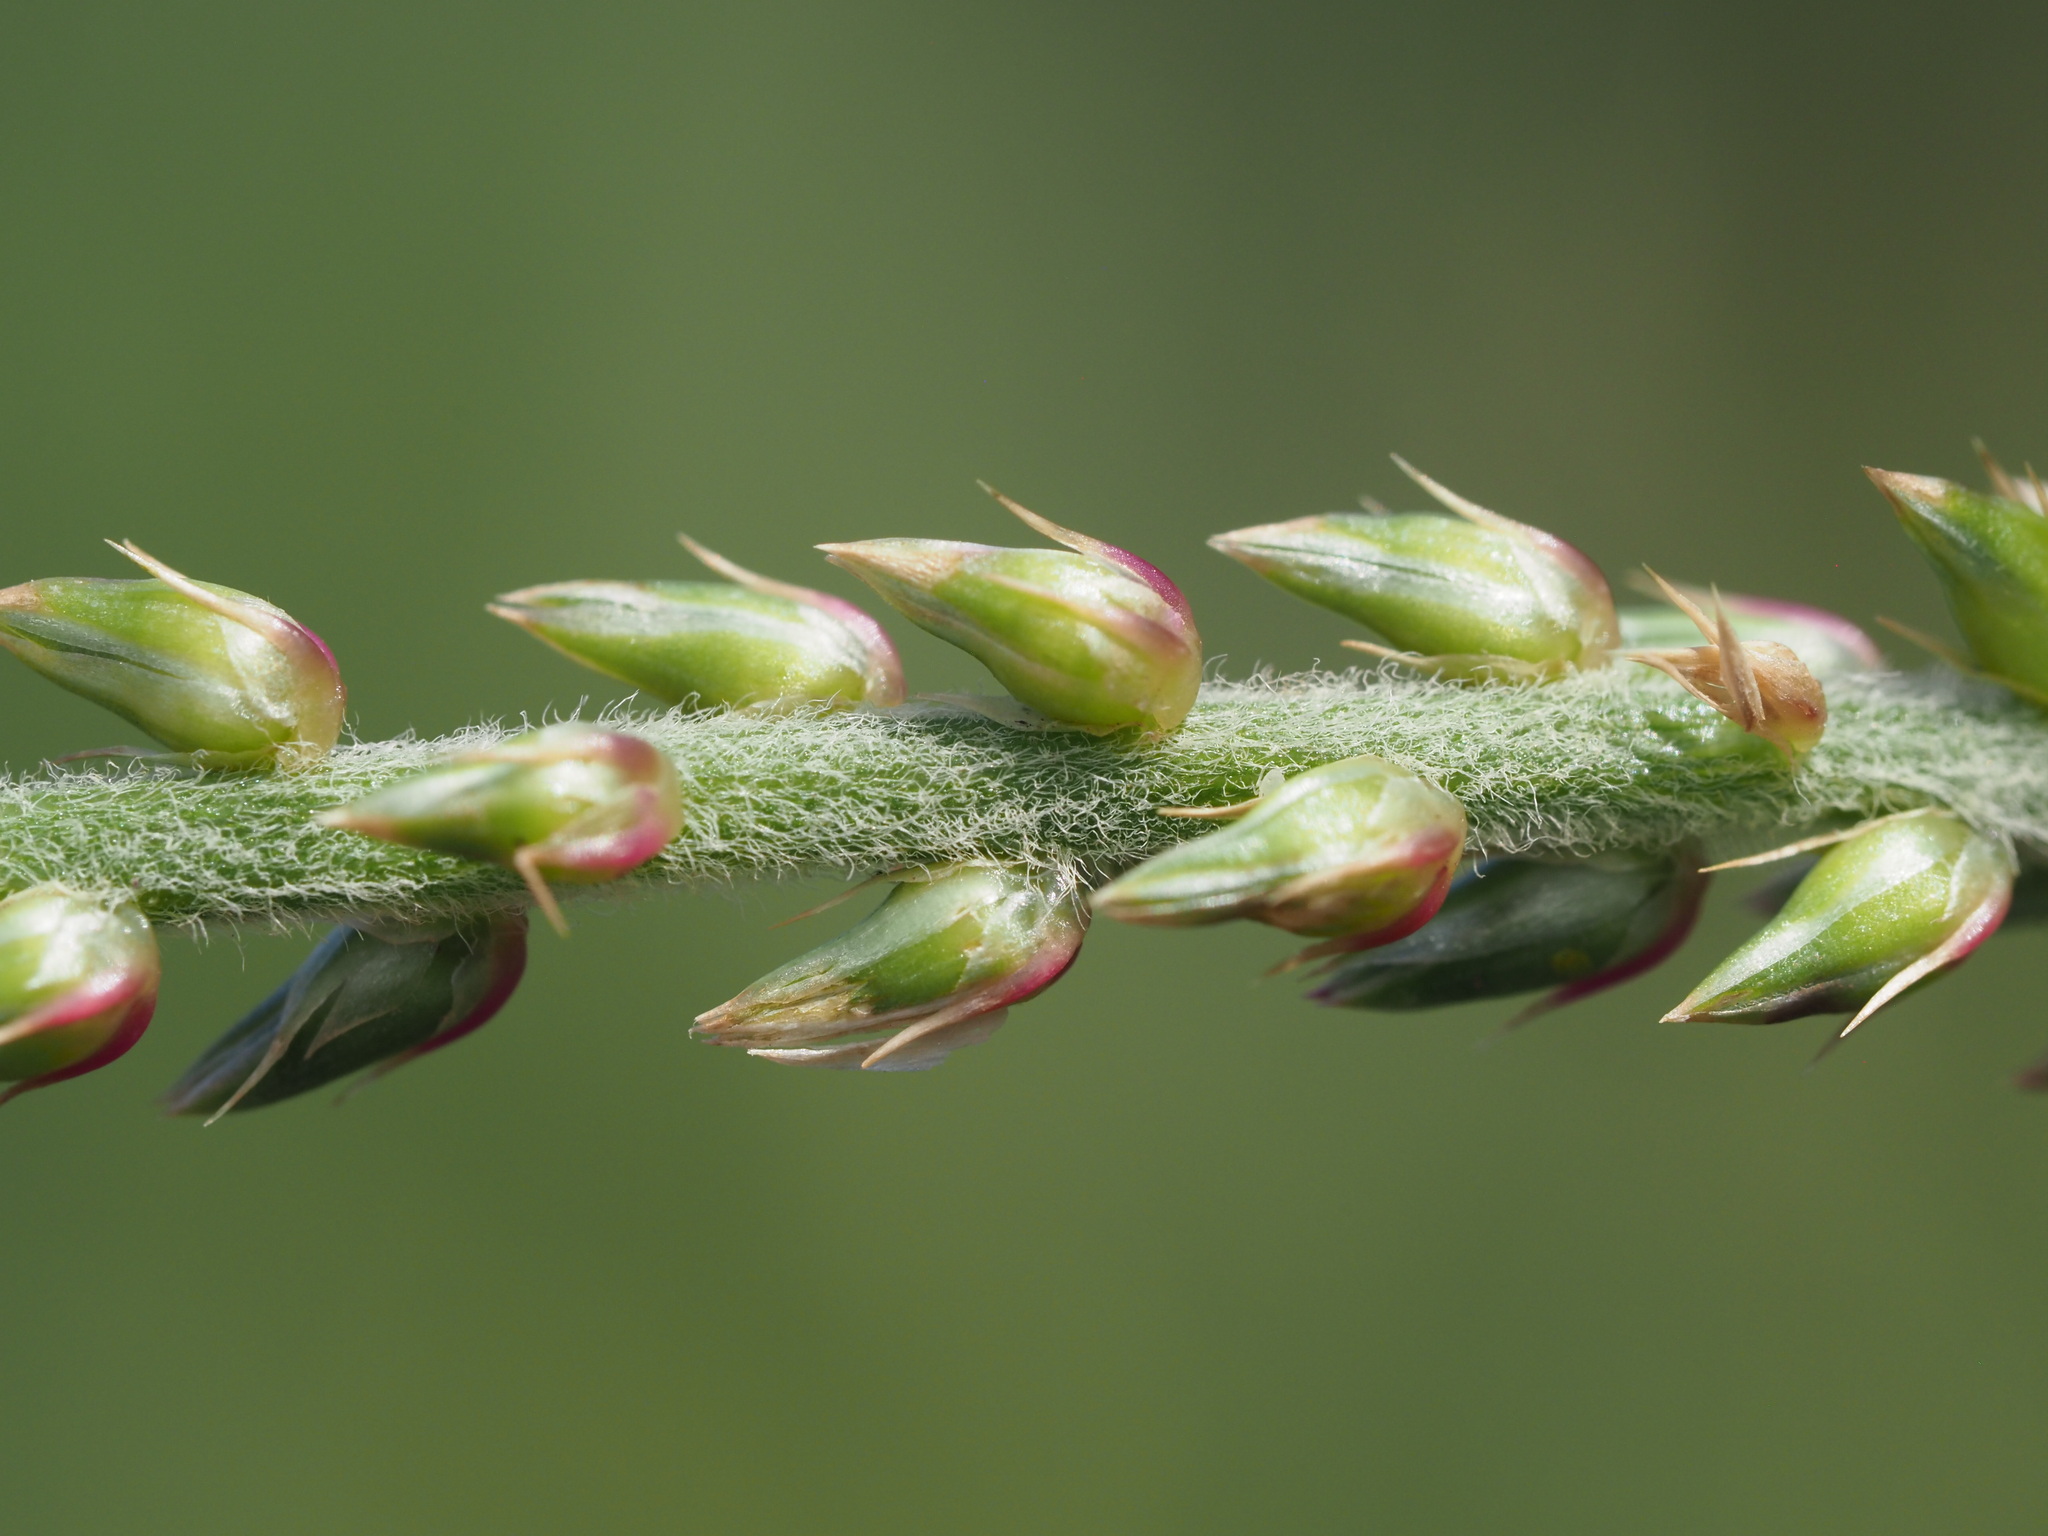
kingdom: Plantae
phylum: Tracheophyta
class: Magnoliopsida
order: Caryophyllales
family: Amaranthaceae
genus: Achyranthes
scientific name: Achyranthes aspera
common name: Devil's horsewhip
